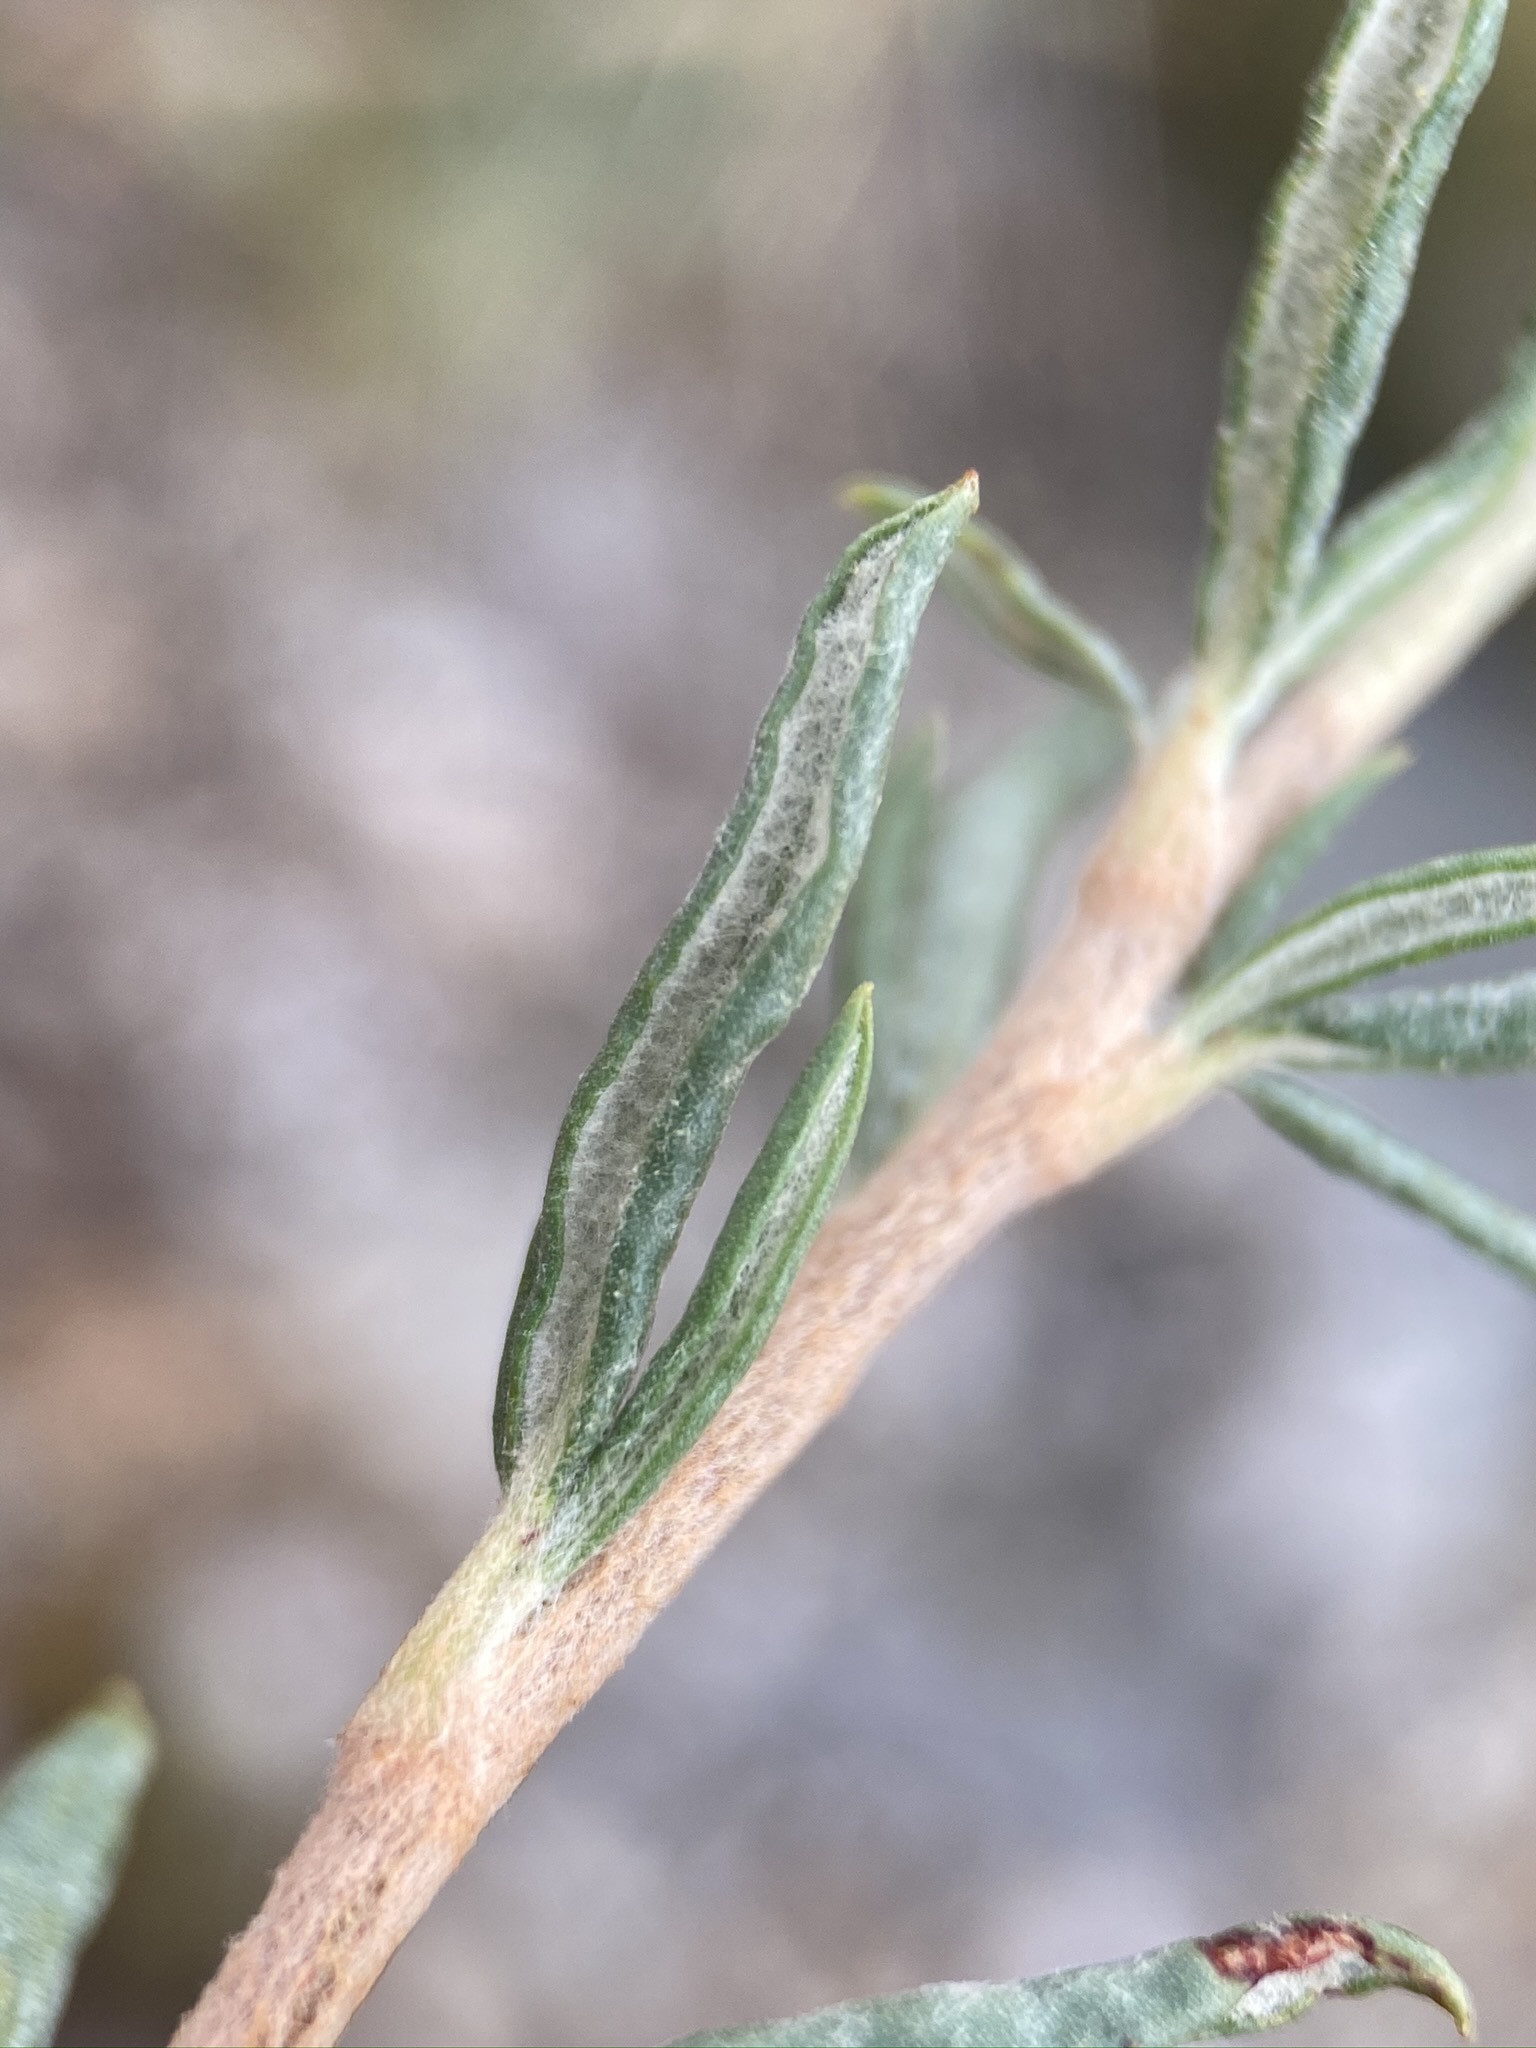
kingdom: Plantae
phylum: Tracheophyta
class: Magnoliopsida
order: Caryophyllales
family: Polygonaceae
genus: Eriogonum
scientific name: Eriogonum microtheca
